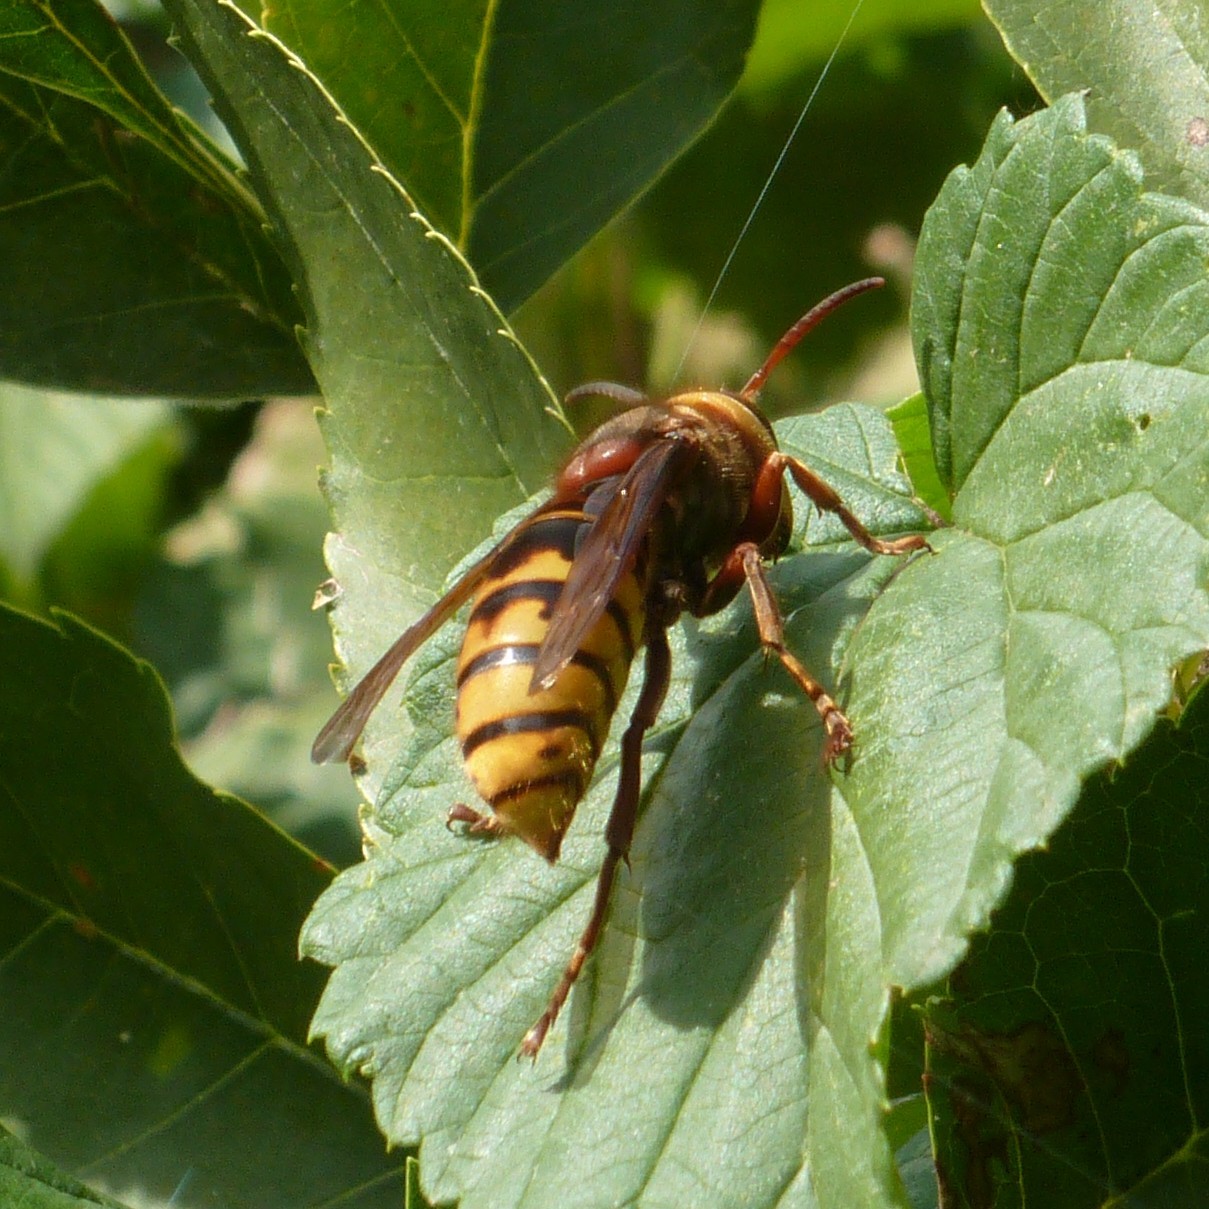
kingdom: Animalia
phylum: Arthropoda
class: Insecta
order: Hymenoptera
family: Vespidae
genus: Vespa
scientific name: Vespa crabro
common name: Hornet
